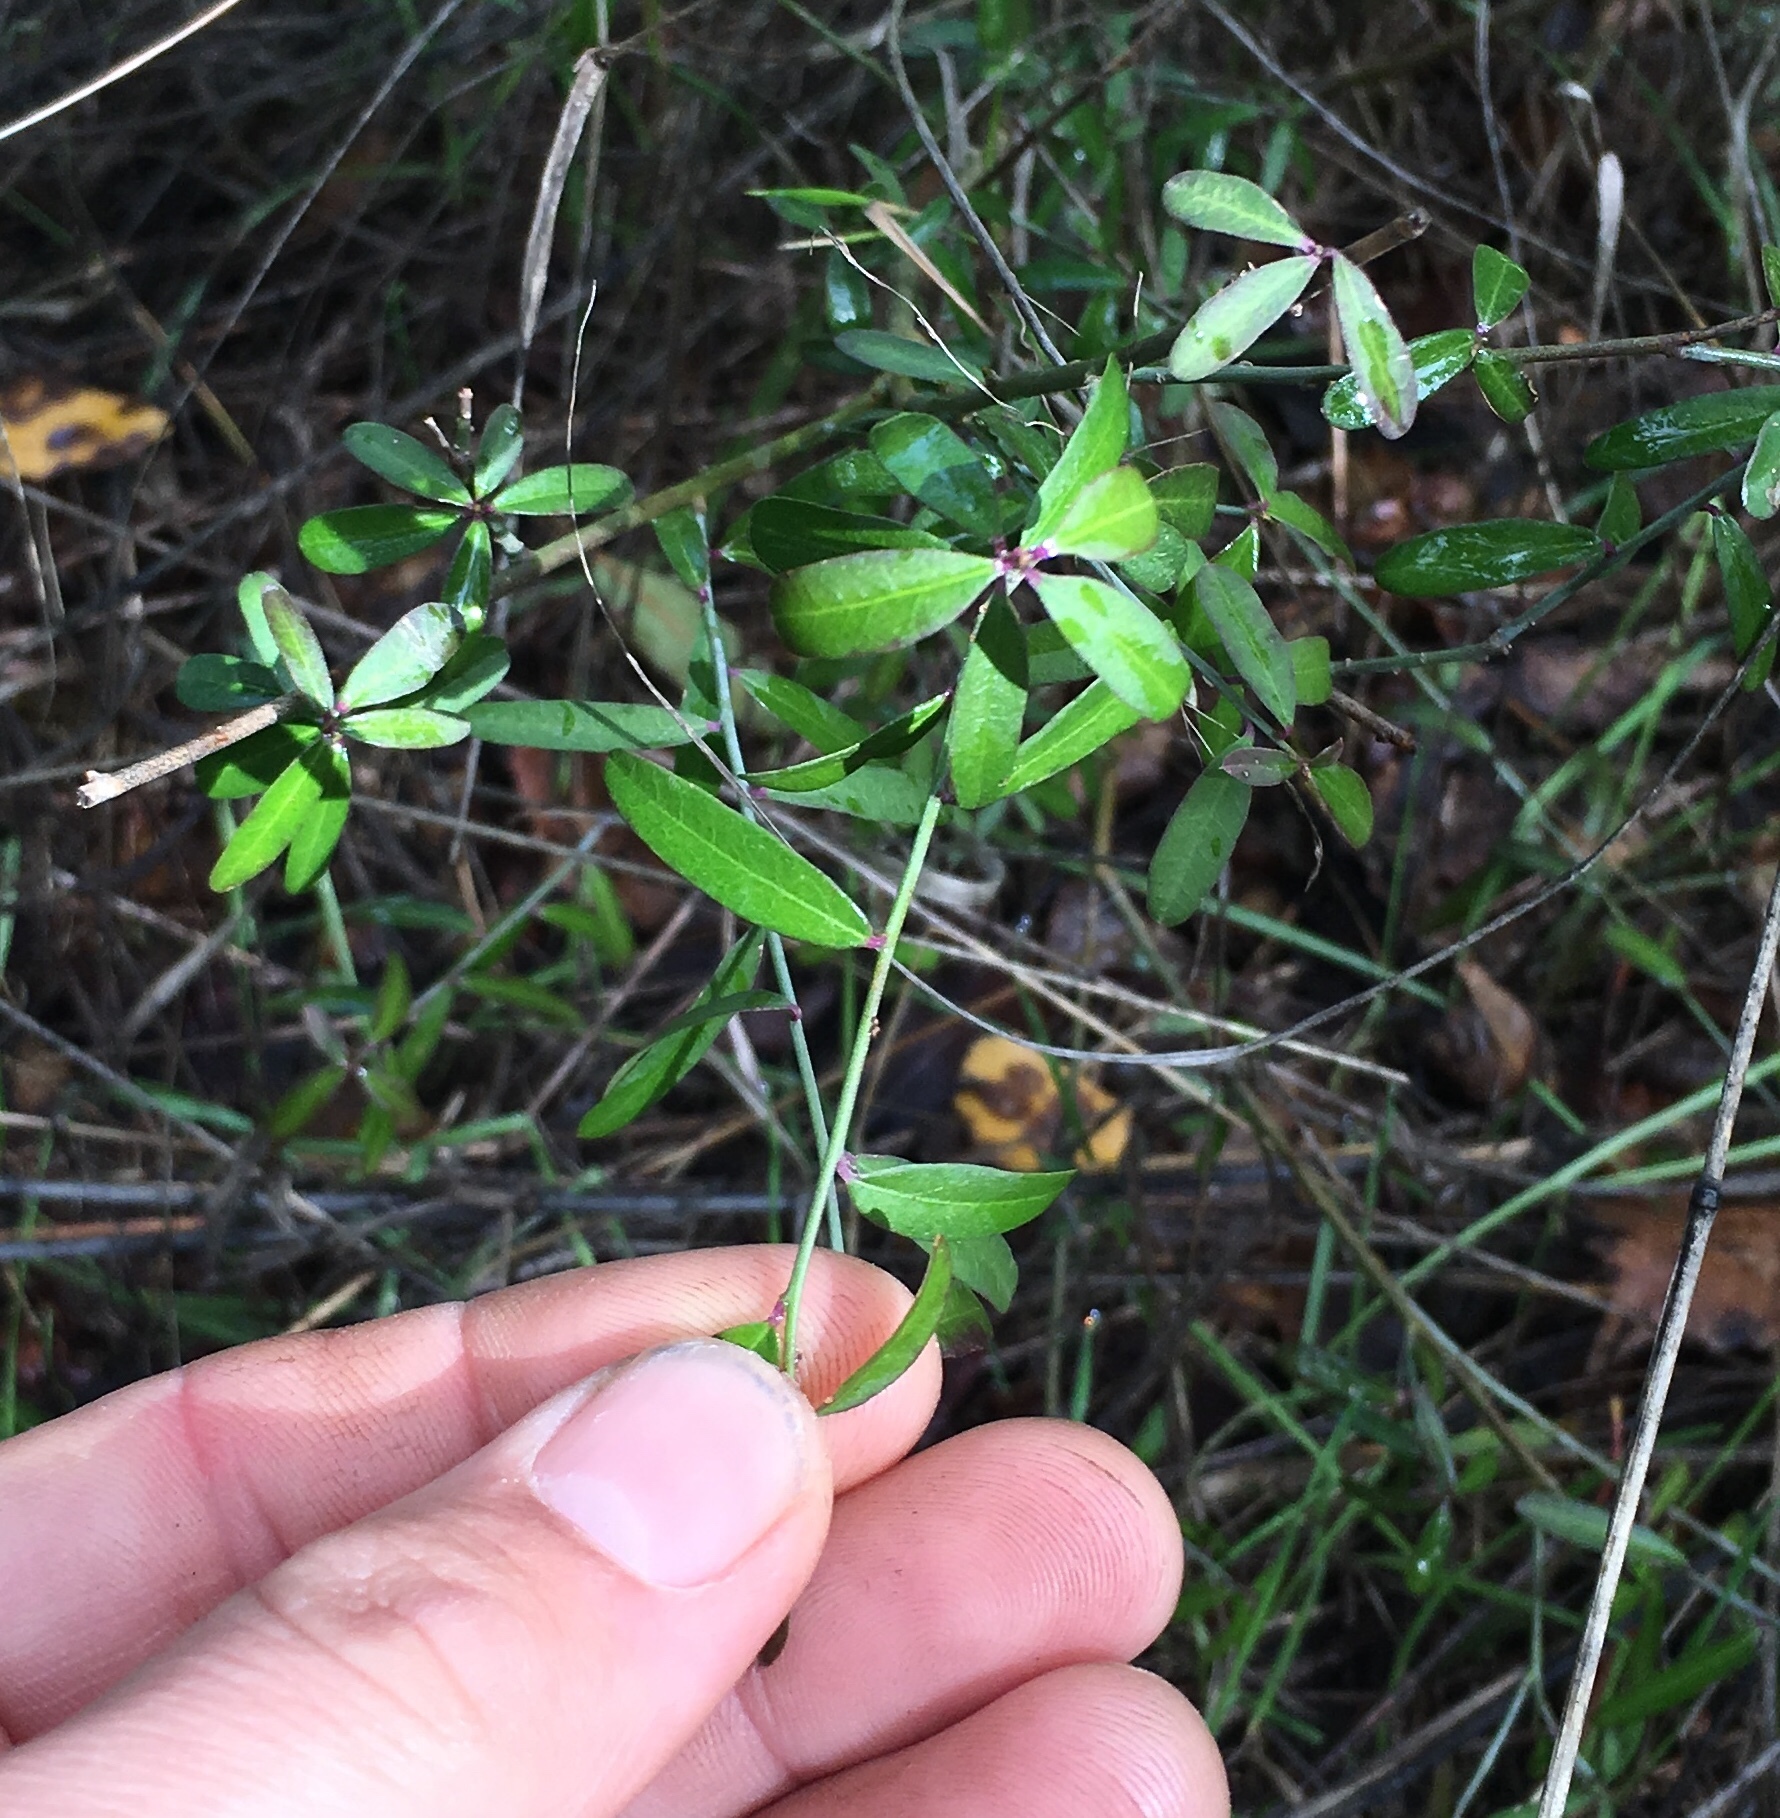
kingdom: Plantae
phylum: Tracheophyta
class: Magnoliopsida
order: Fabales
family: Polygalaceae
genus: Rhinotropis
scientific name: Rhinotropis cornuta
